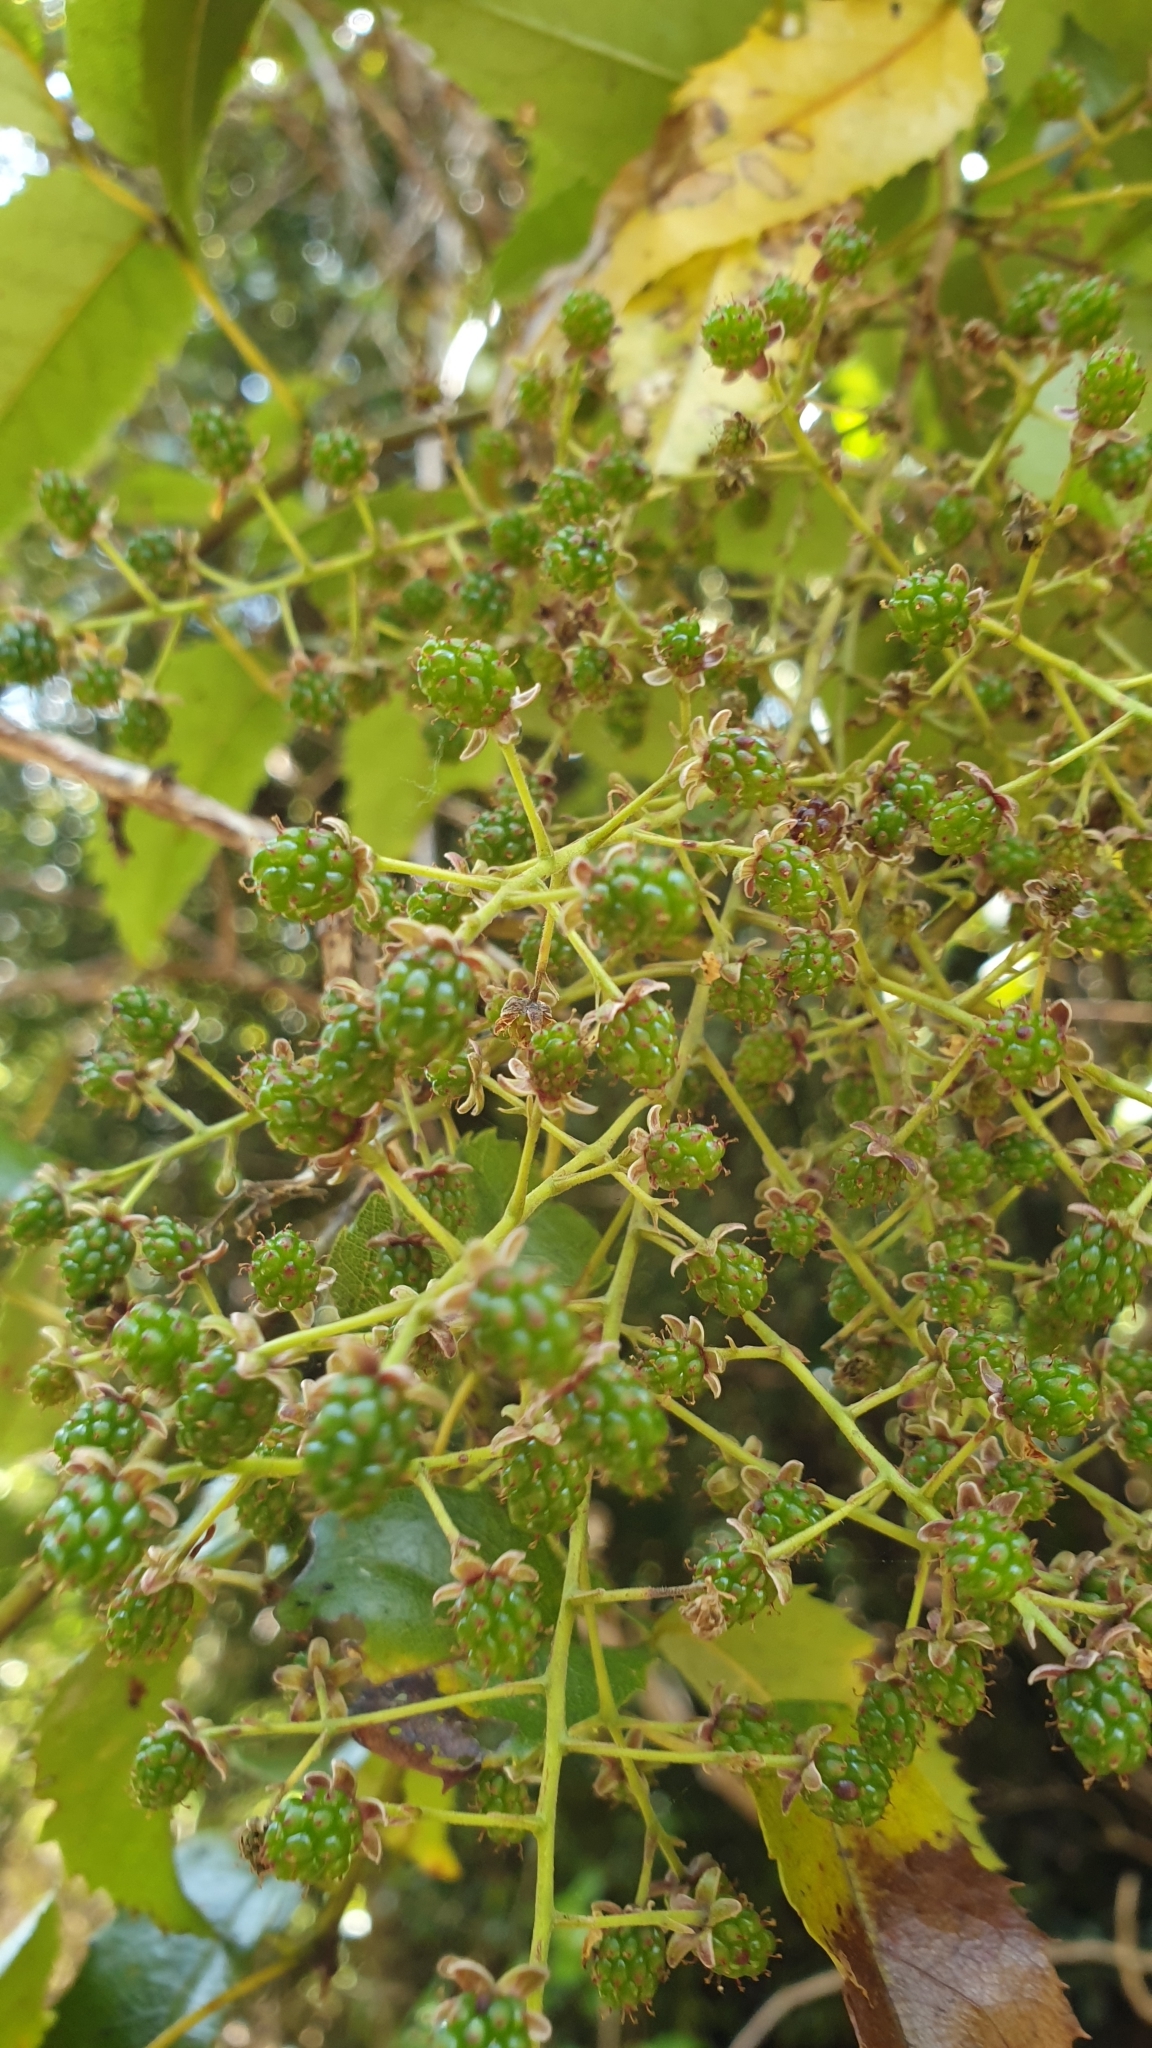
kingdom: Plantae
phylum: Tracheophyta
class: Magnoliopsida
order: Rosales
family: Rosaceae
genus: Rubus
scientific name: Rubus cissoides
